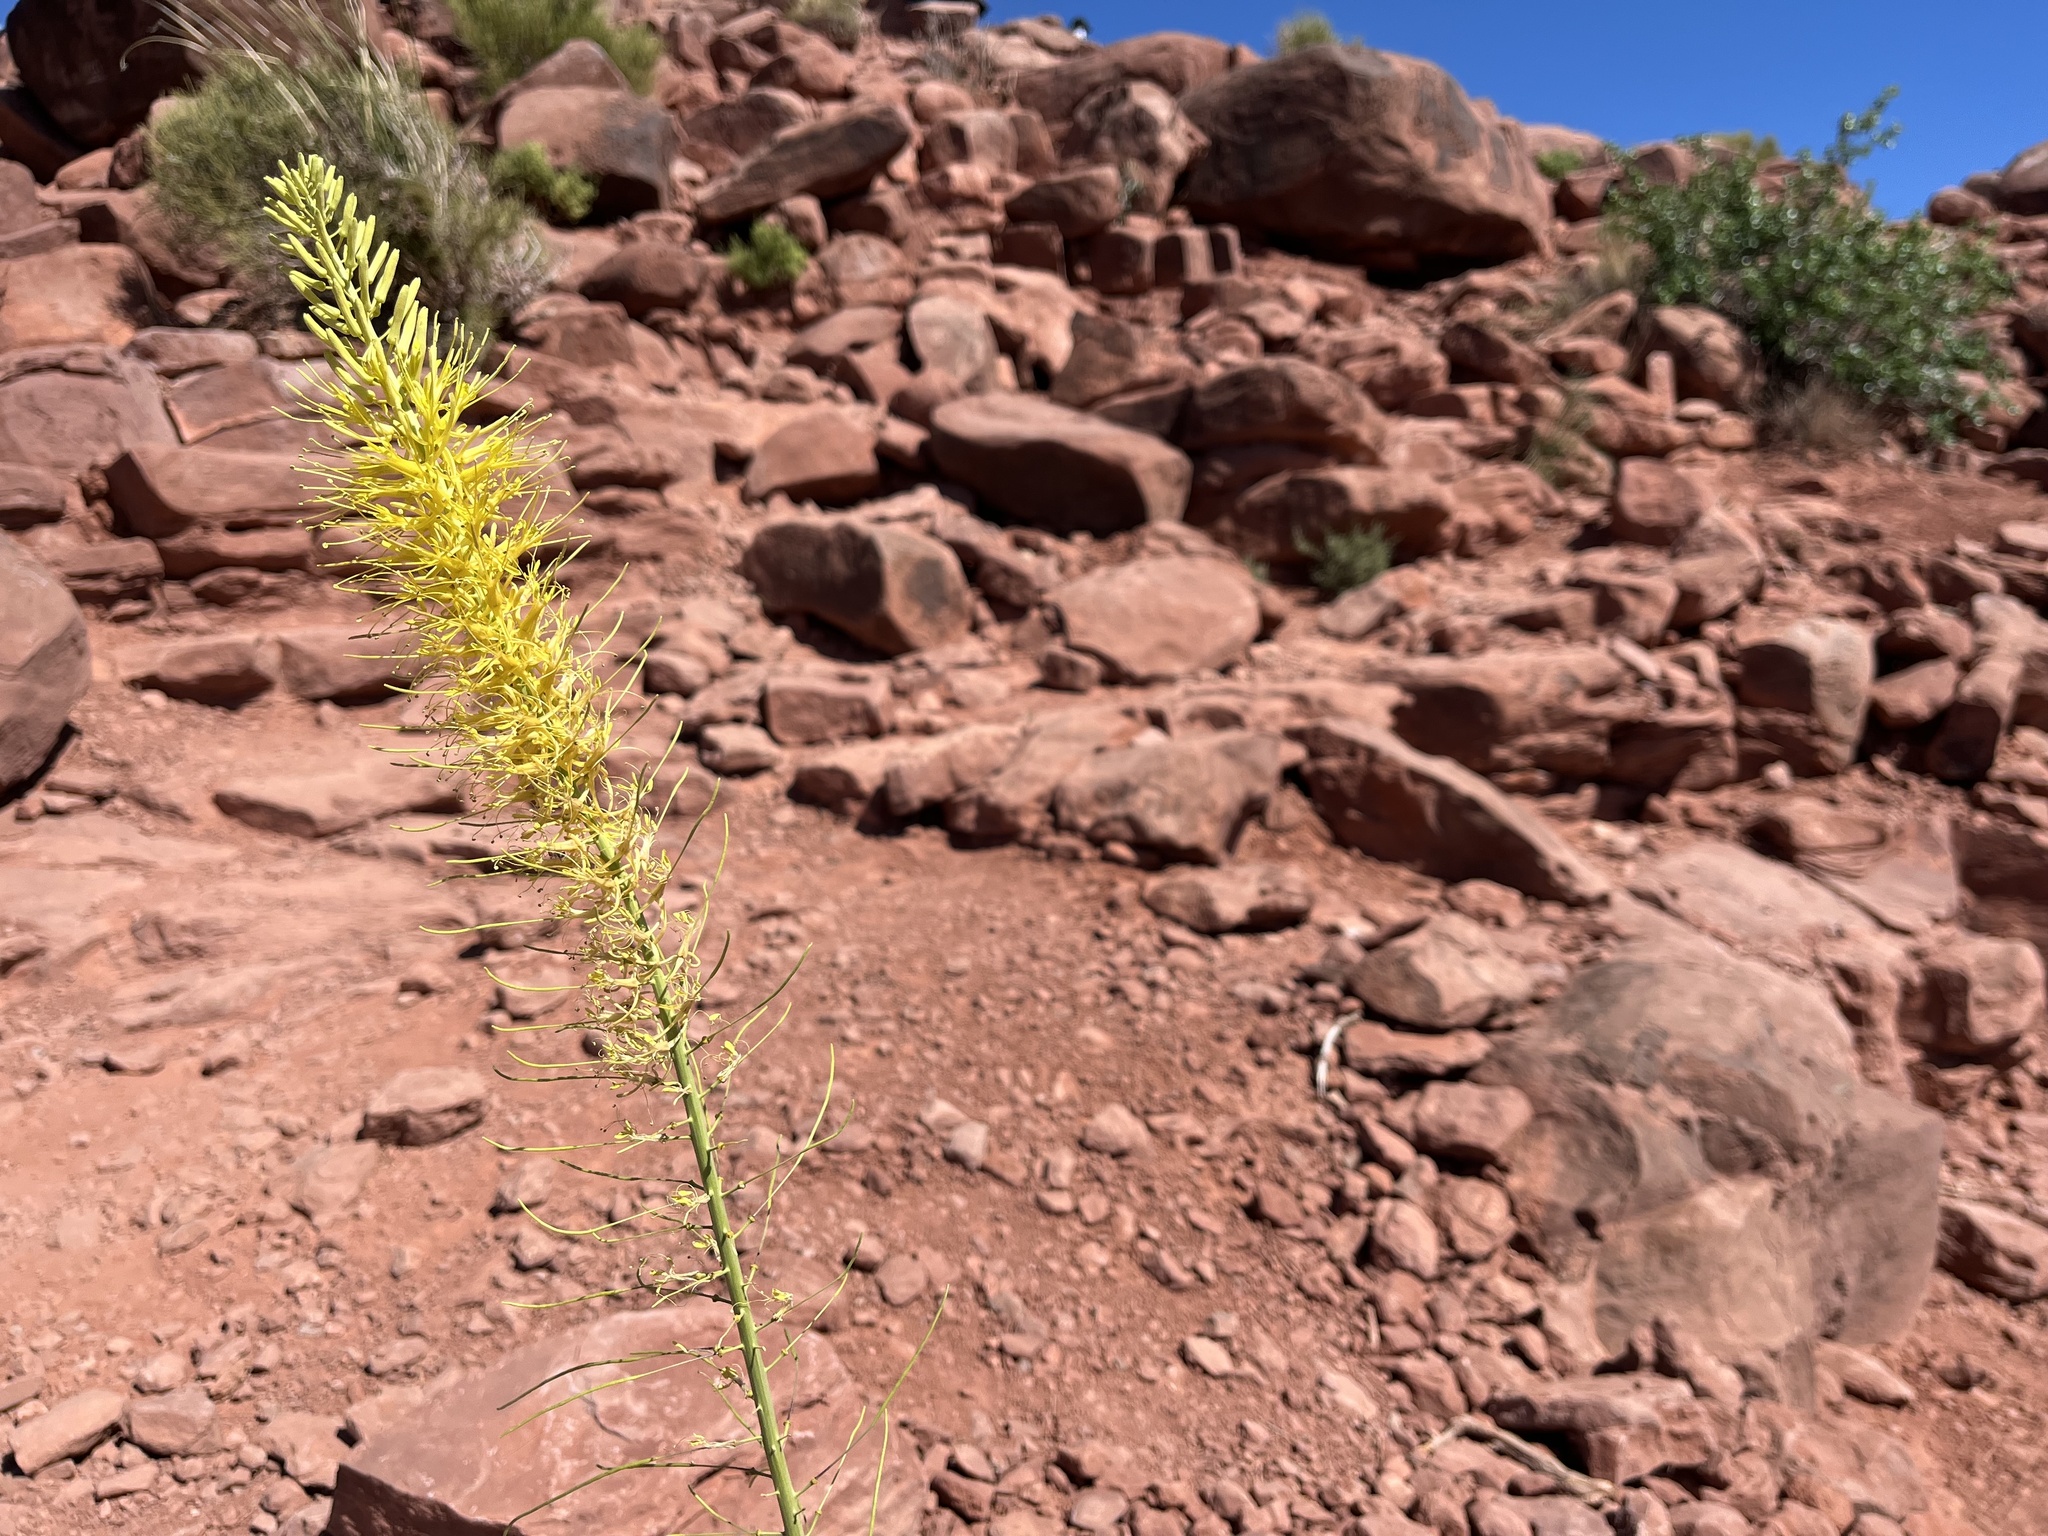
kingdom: Plantae
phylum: Tracheophyta
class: Magnoliopsida
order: Brassicales
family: Brassicaceae
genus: Stanleya
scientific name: Stanleya pinnata
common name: Prince's-plume
